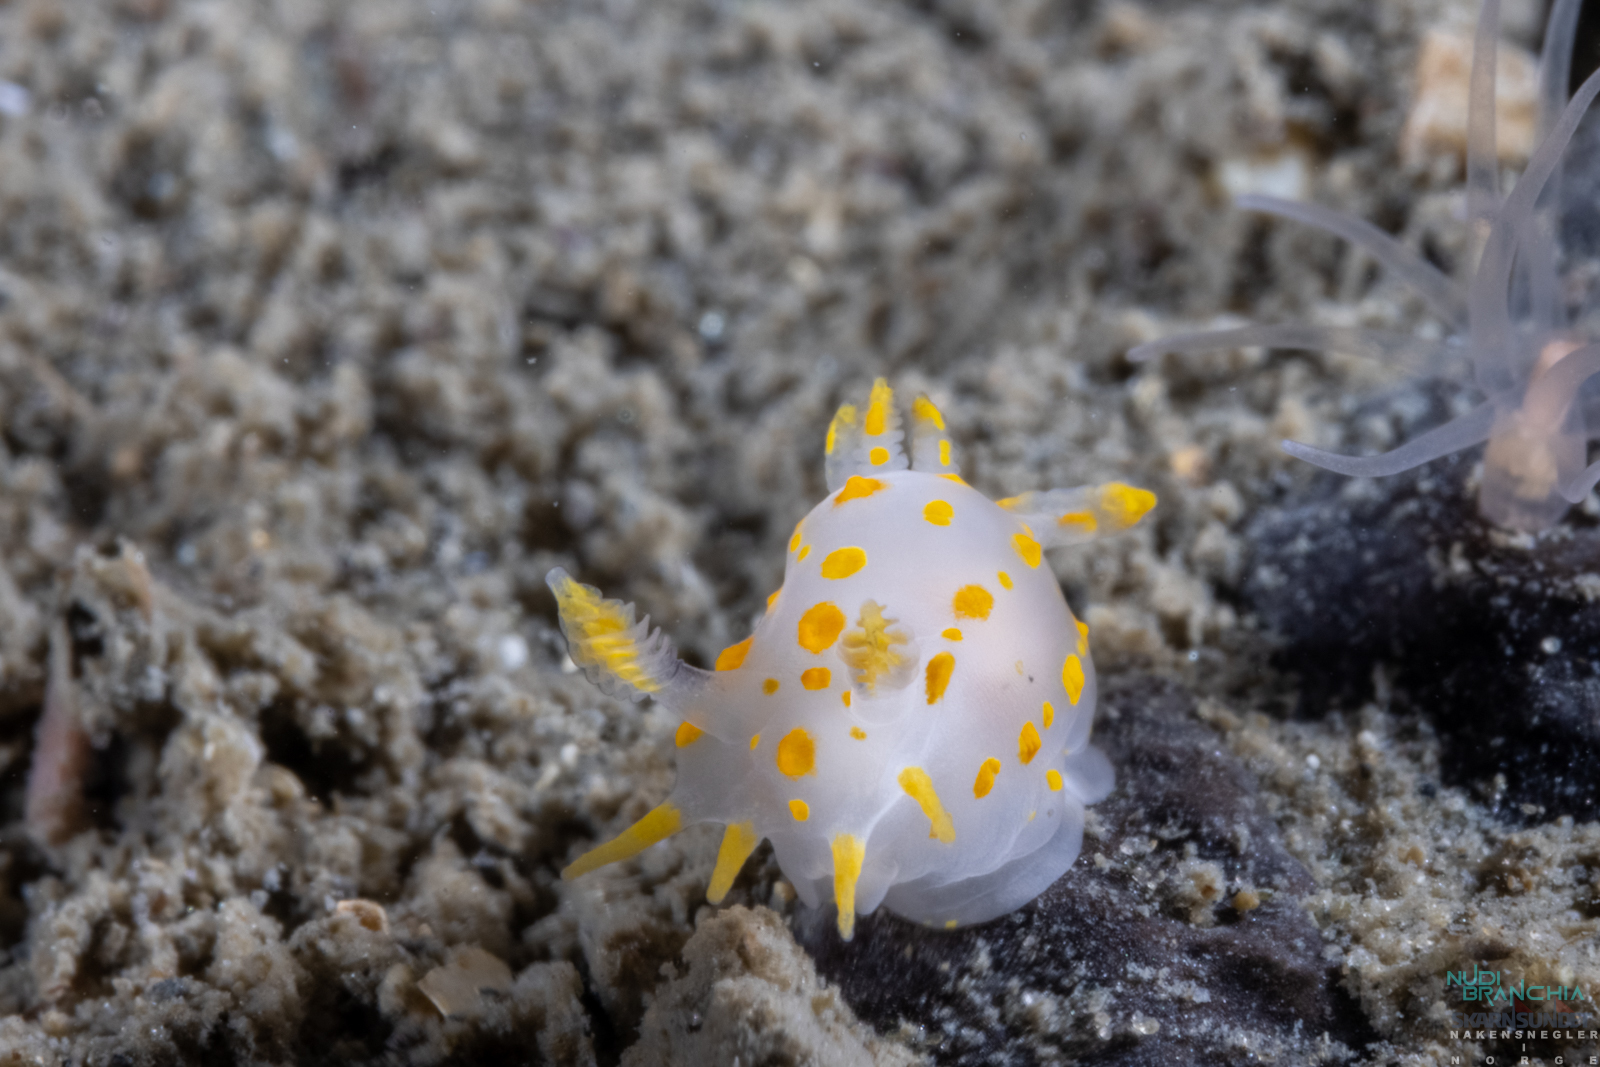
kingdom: Animalia
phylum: Mollusca
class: Gastropoda
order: Nudibranchia
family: Polyceridae
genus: Polycera
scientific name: Polycera quadrilineata
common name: Four-striped polycera
